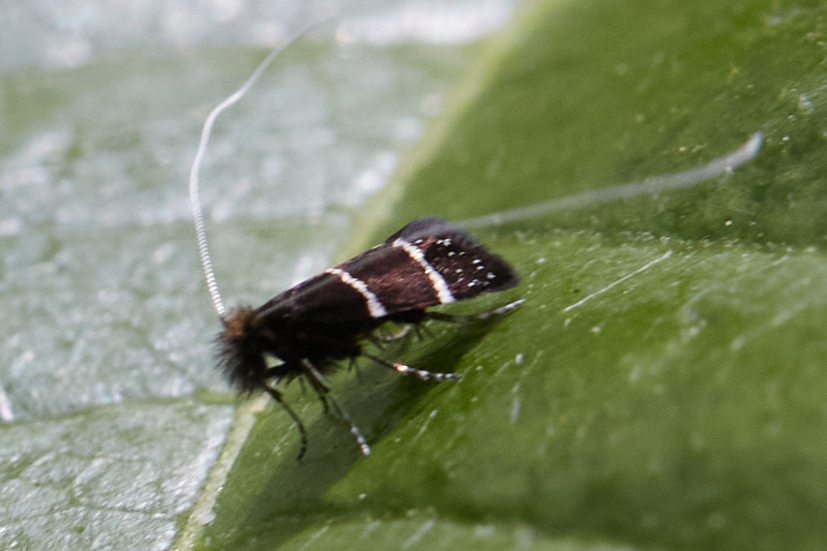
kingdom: Animalia
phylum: Arthropoda
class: Insecta
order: Lepidoptera
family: Adelidae
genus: Adela
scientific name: Adela septentrionella
